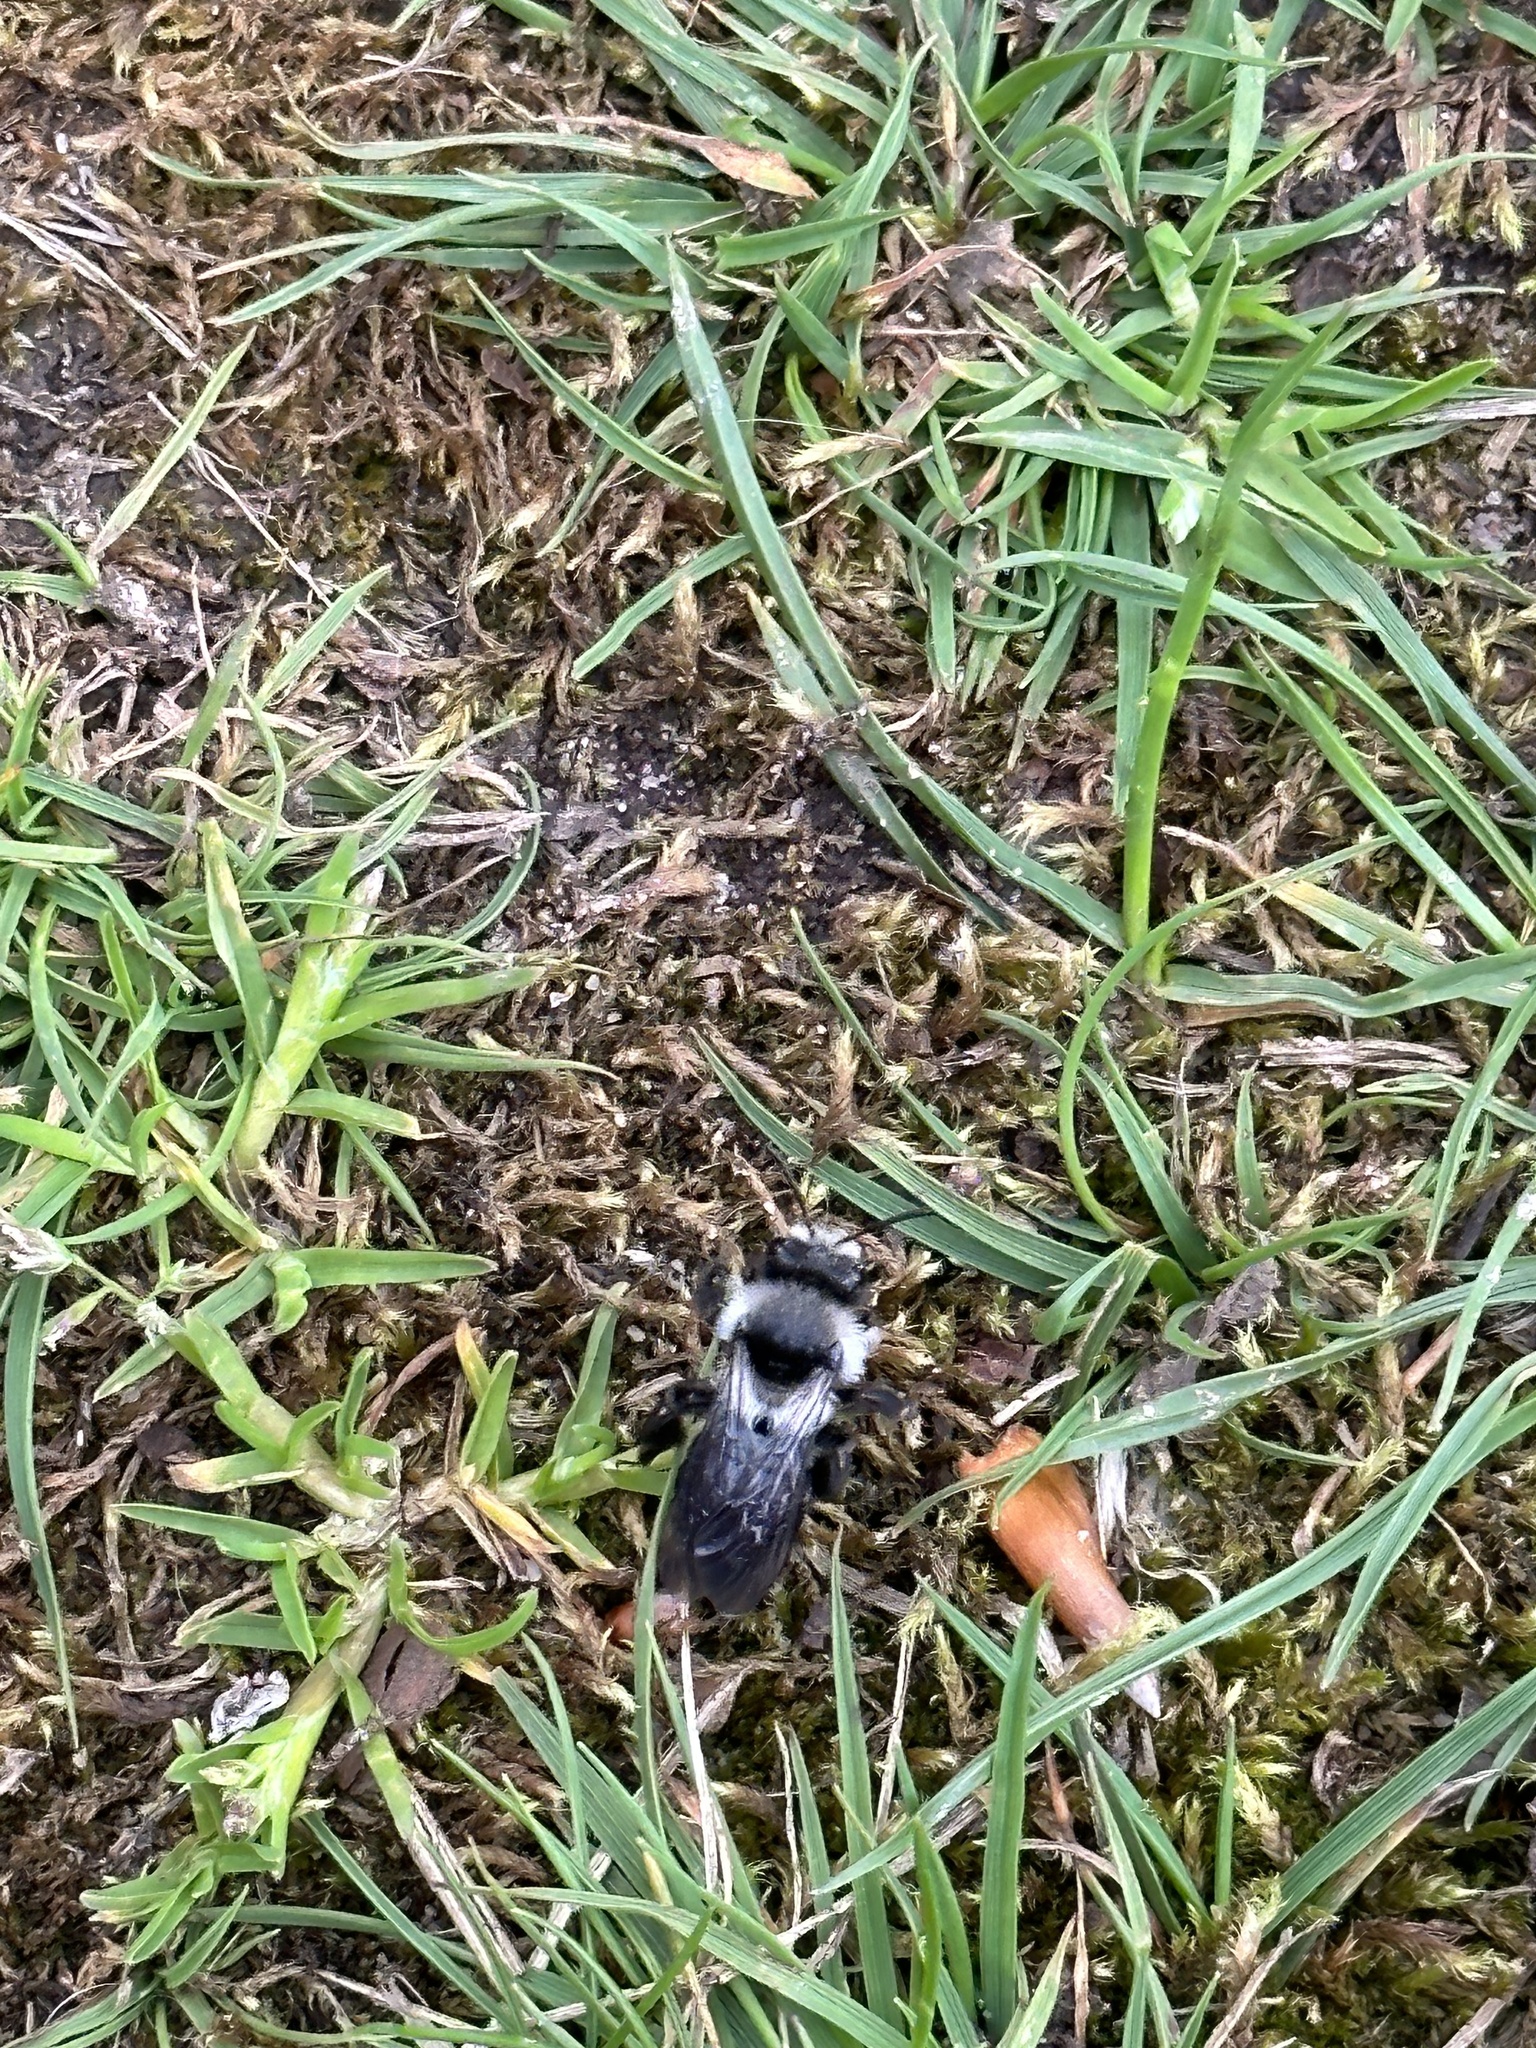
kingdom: Animalia
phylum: Arthropoda
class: Insecta
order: Hymenoptera
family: Andrenidae
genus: Andrena
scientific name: Andrena cineraria
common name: Ashy mining bee
